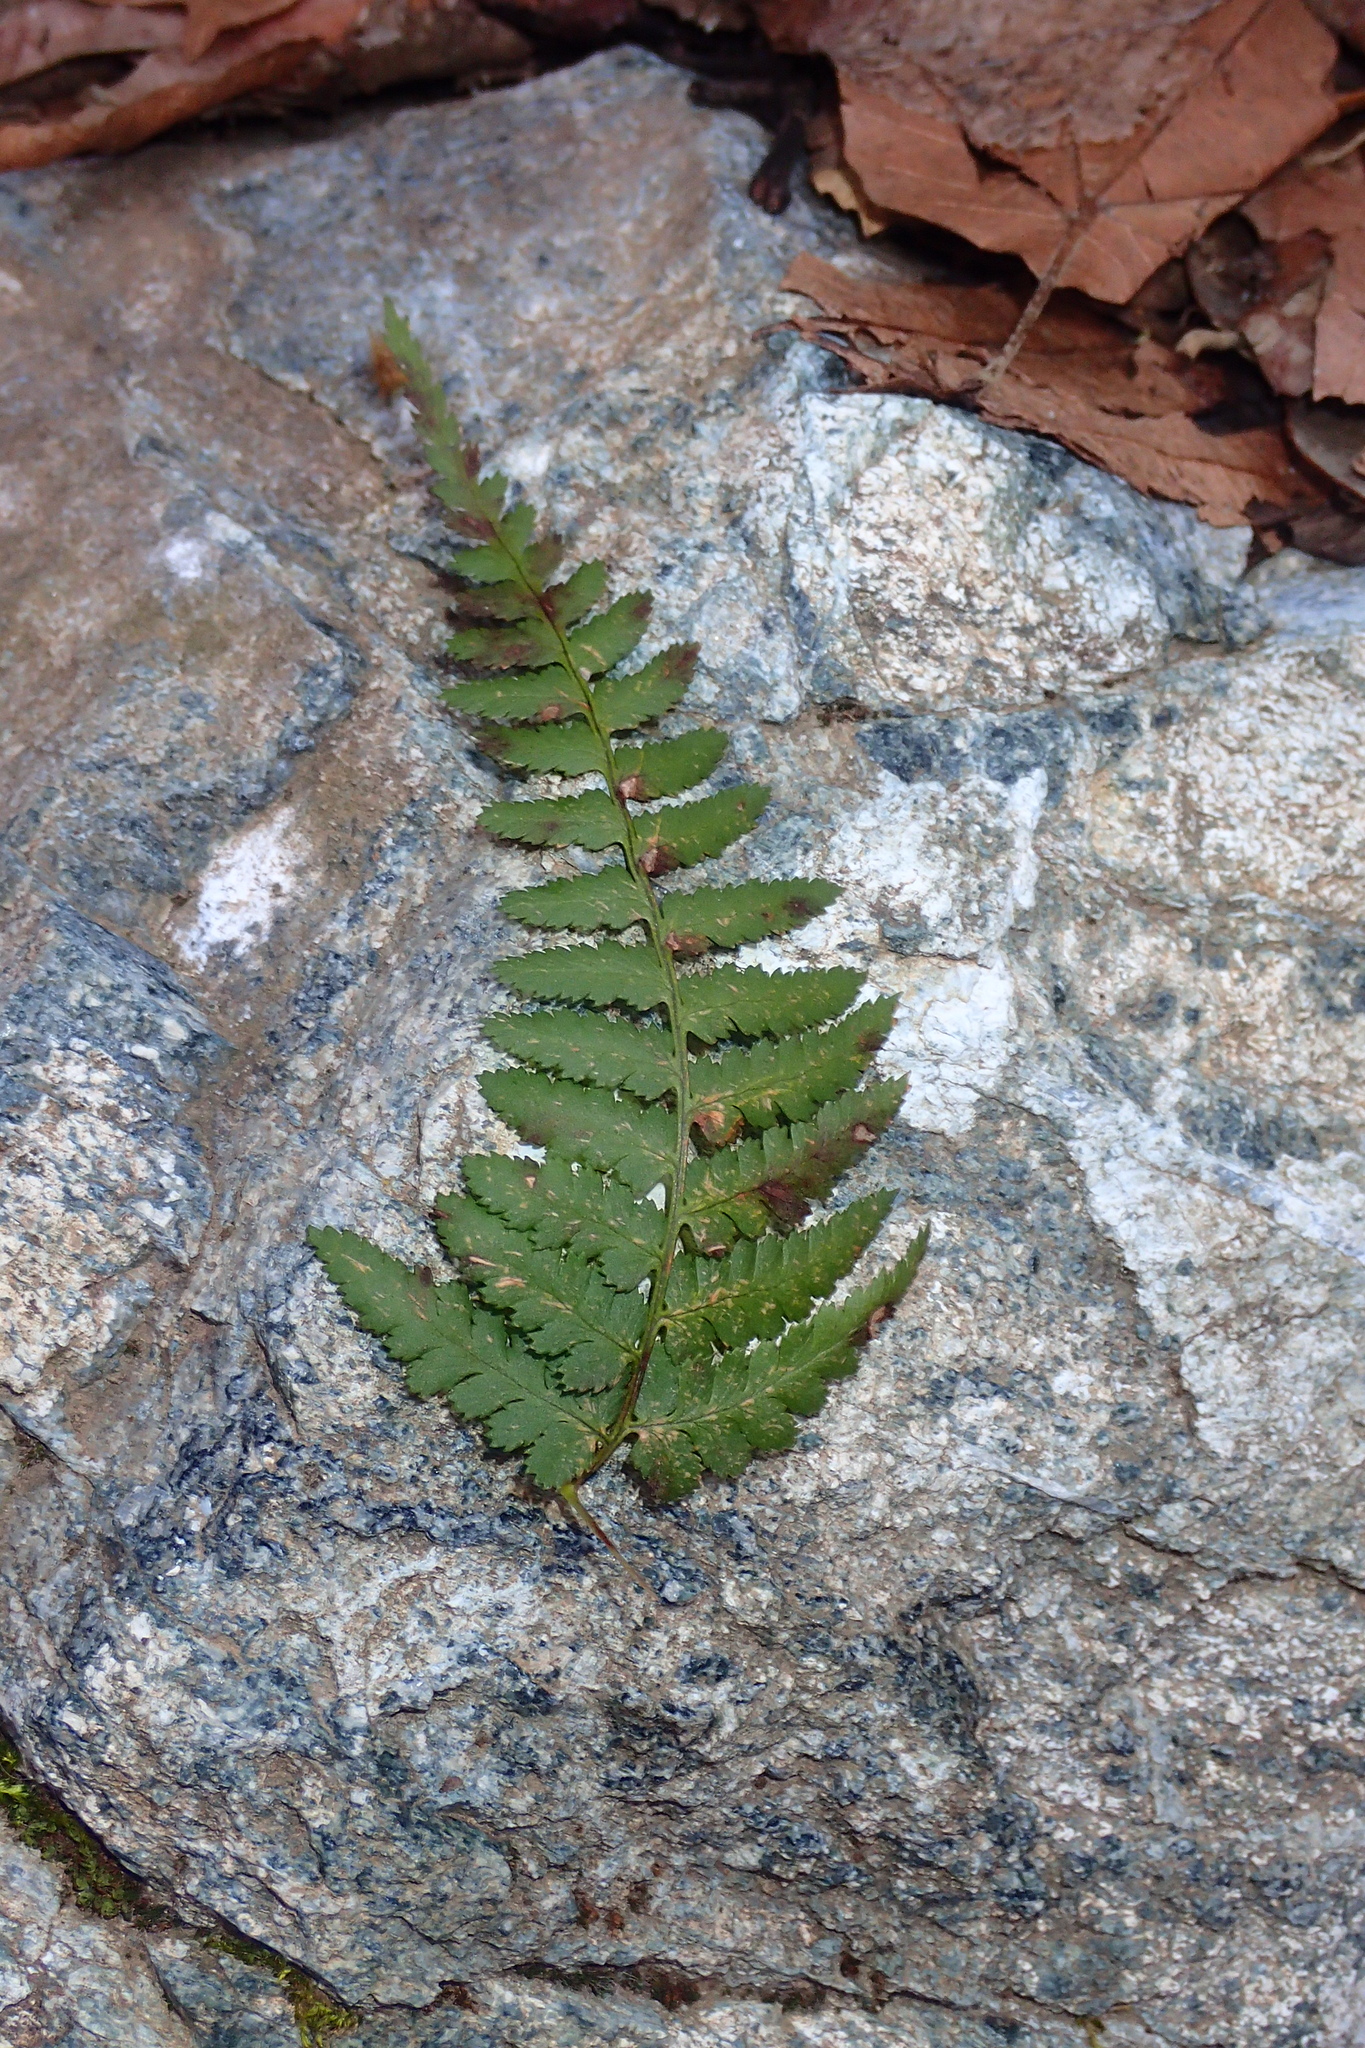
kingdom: Plantae
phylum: Tracheophyta
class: Polypodiopsida
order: Polypodiales
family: Dryopteridaceae
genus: Dryopteris
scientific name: Dryopteris pallida
